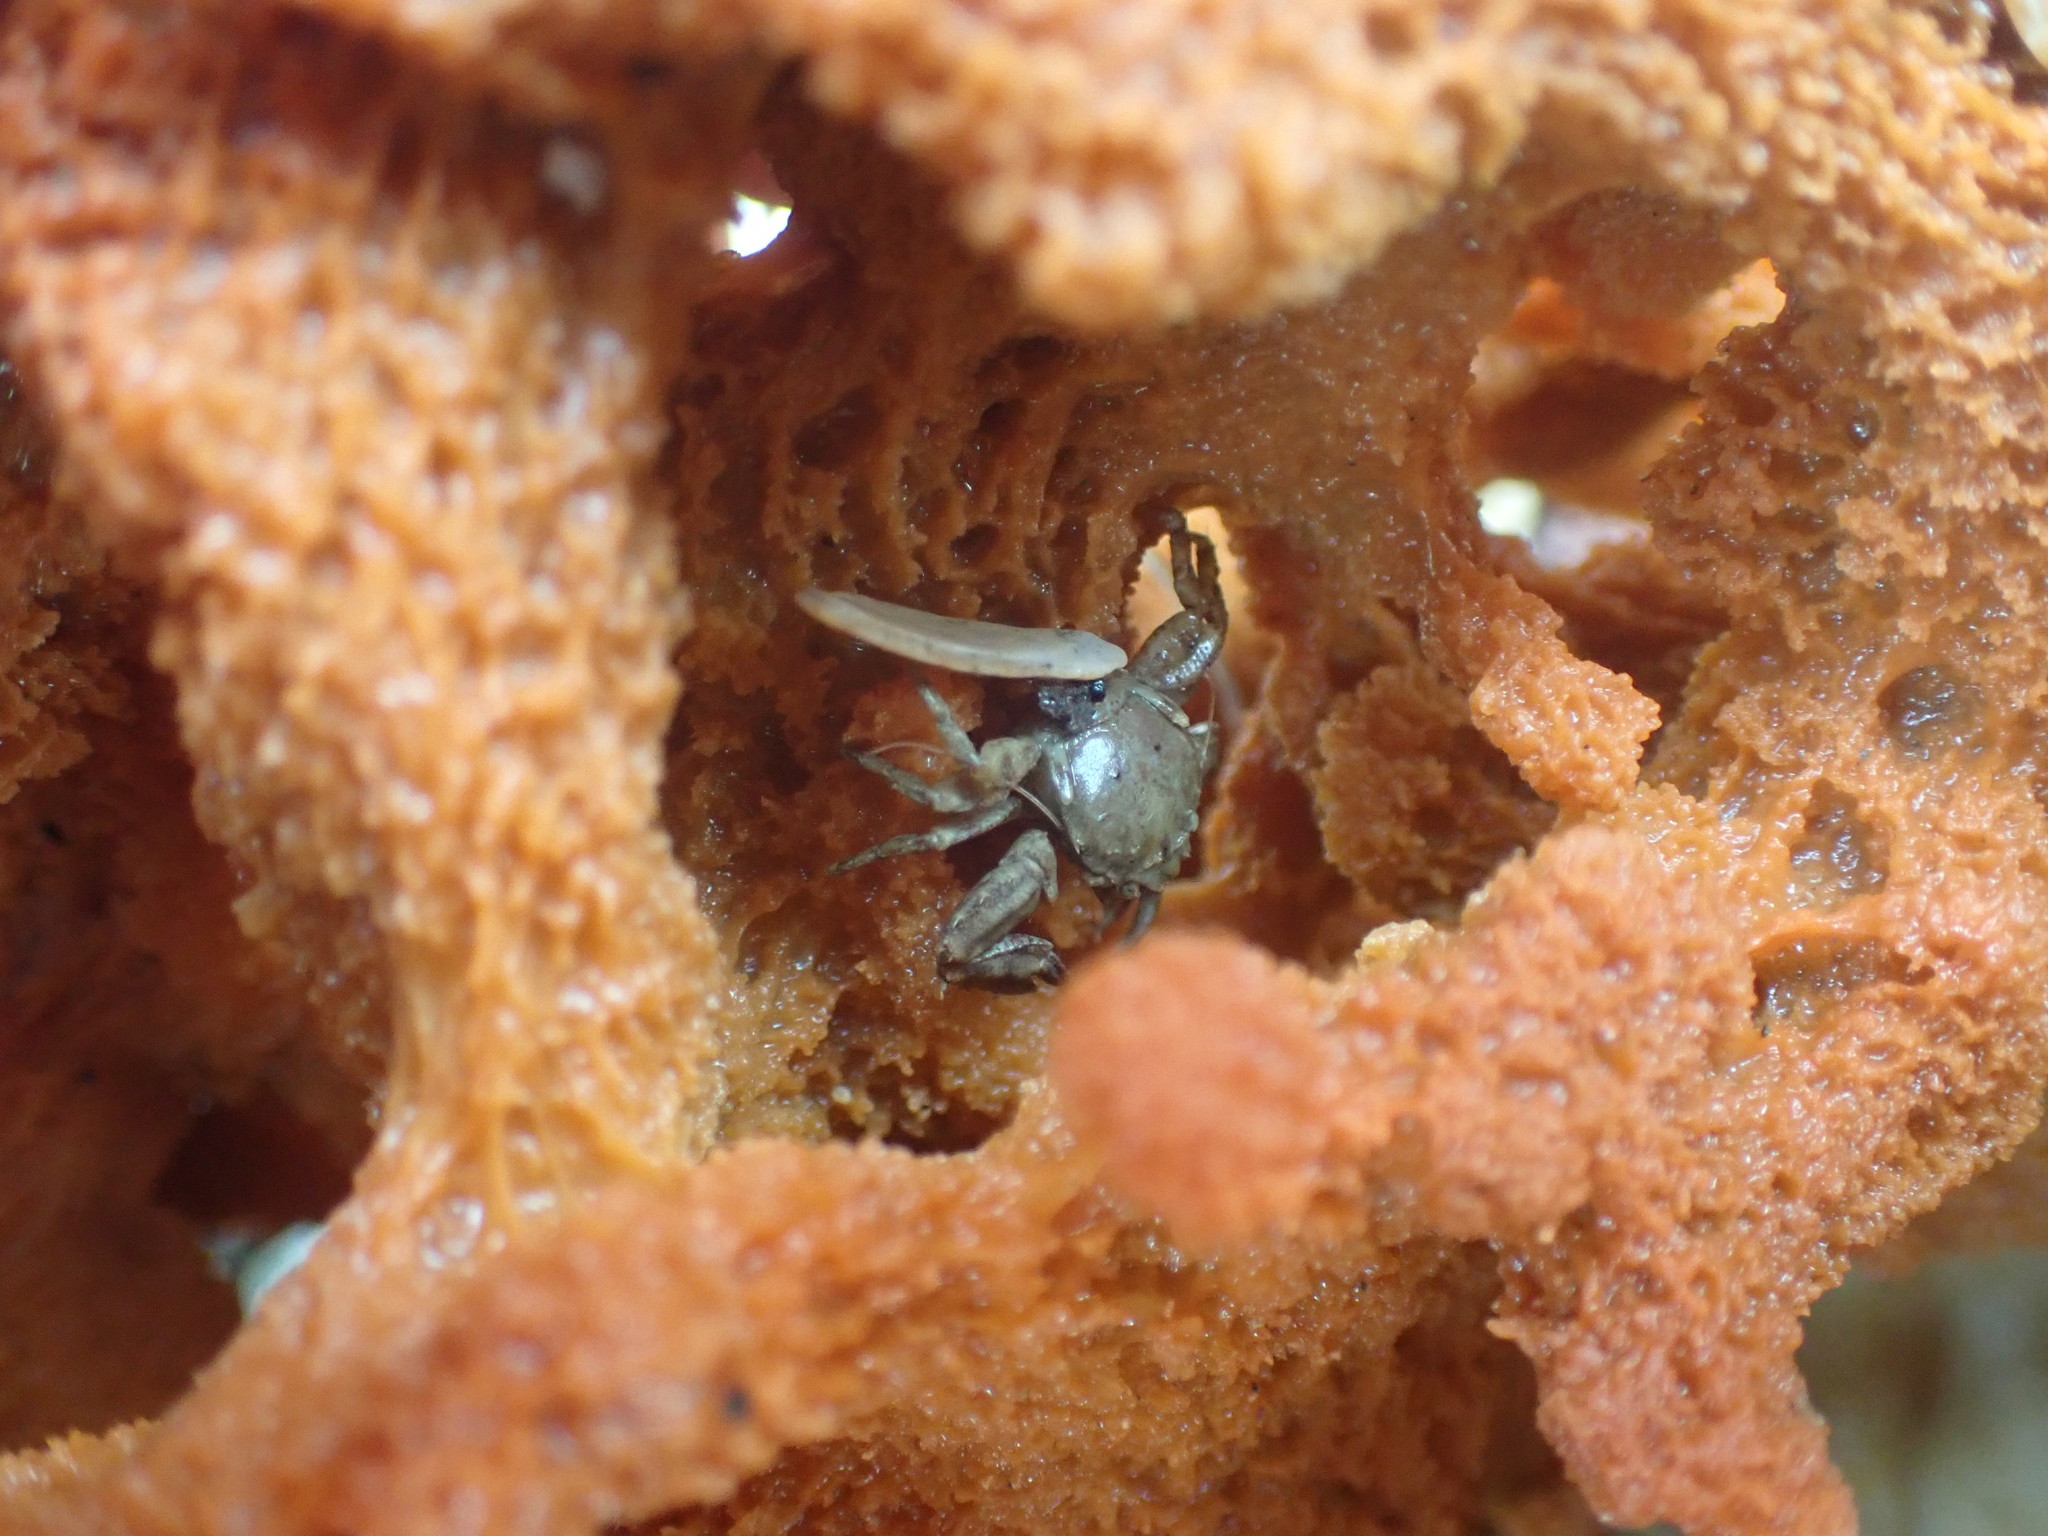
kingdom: Animalia
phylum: Arthropoda
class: Malacostraca
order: Decapoda
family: Porcellanidae
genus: Petrolisthes
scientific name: Petrolisthes novaezelandiae
